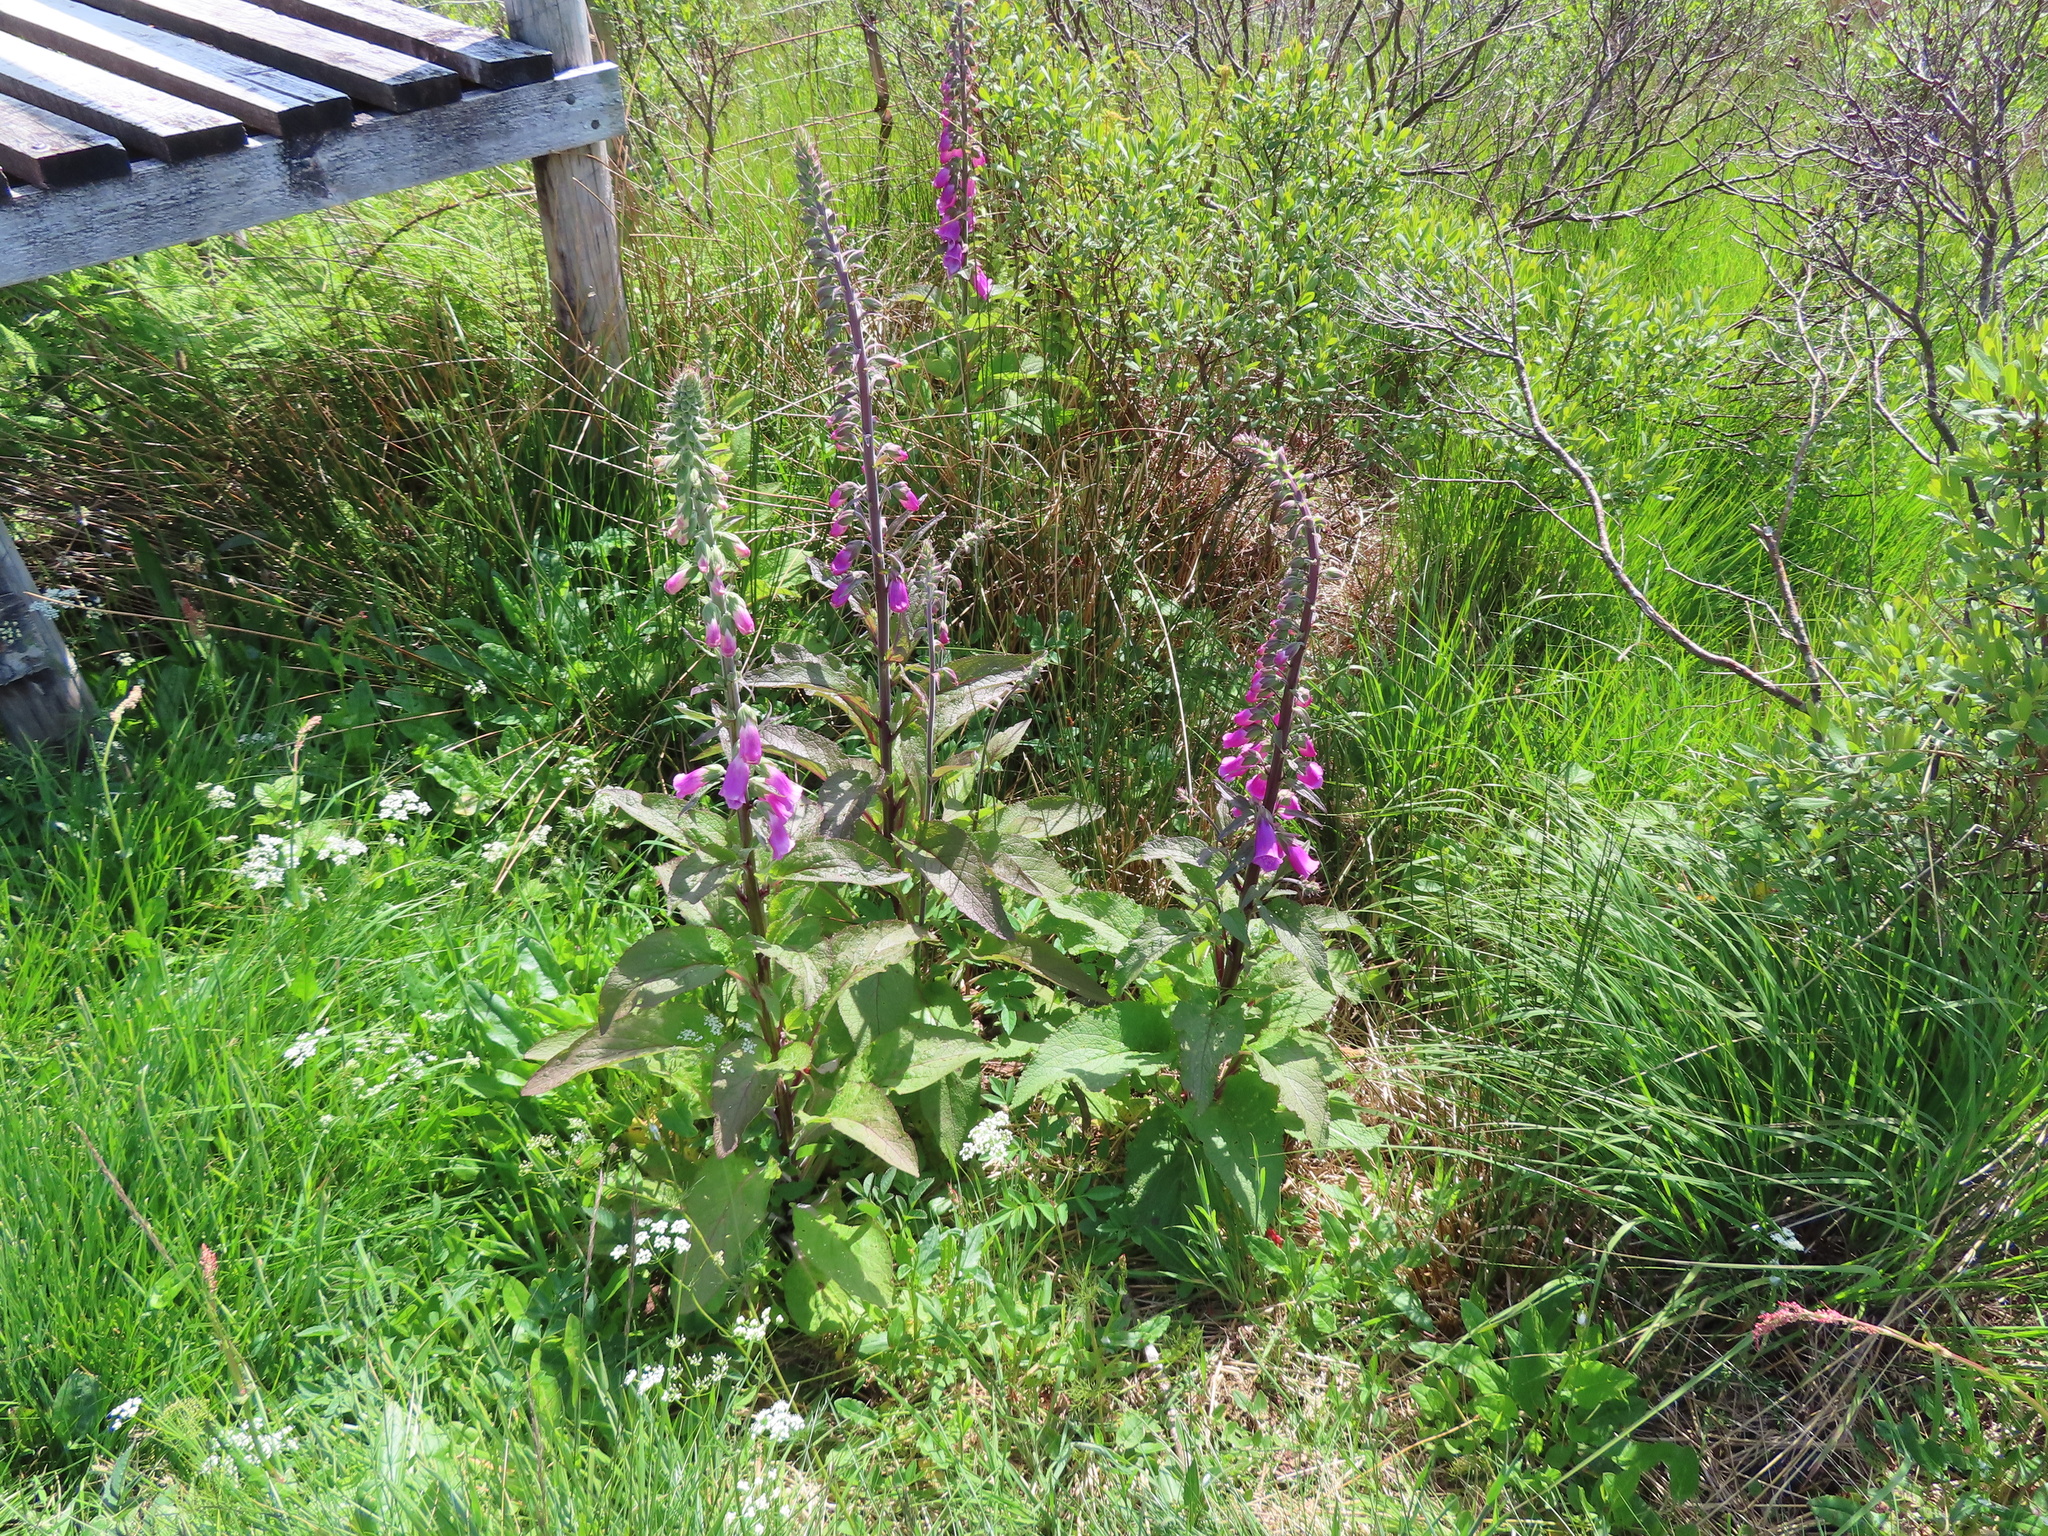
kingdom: Plantae
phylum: Tracheophyta
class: Magnoliopsida
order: Lamiales
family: Plantaginaceae
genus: Digitalis
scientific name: Digitalis purpurea
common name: Foxglove
